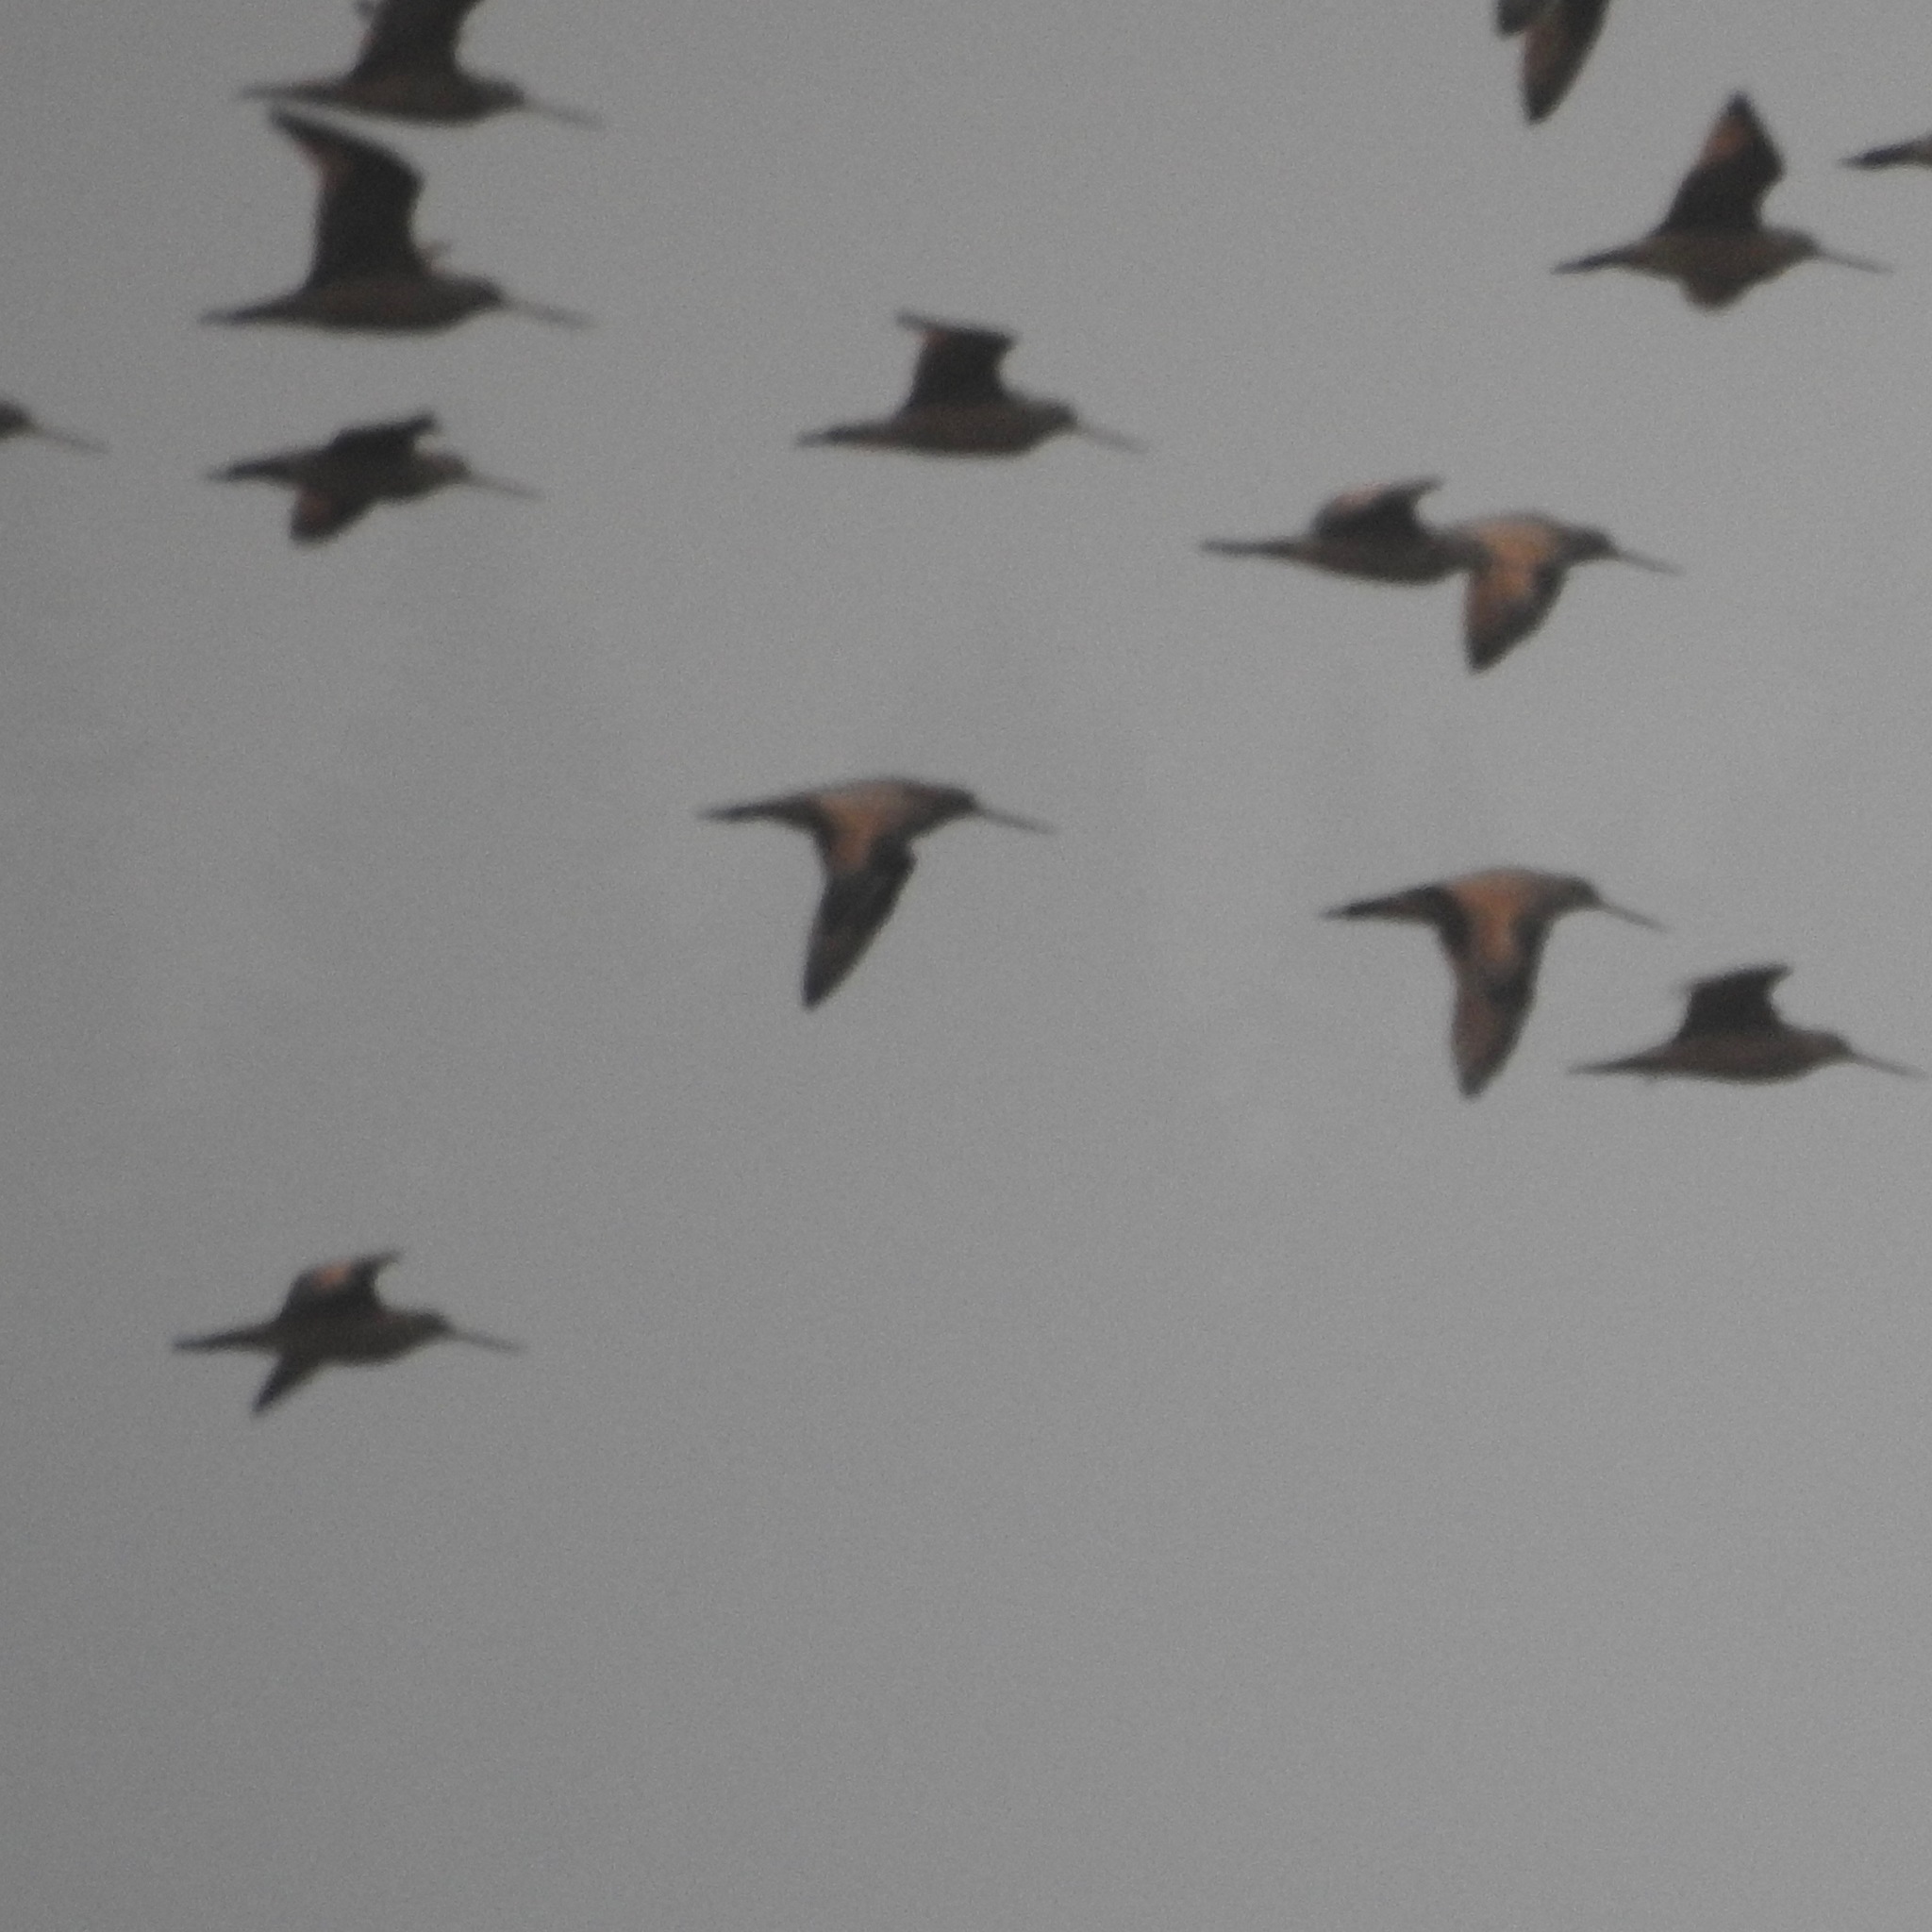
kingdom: Animalia
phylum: Chordata
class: Aves
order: Charadriiformes
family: Scolopacidae
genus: Limosa
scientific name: Limosa fedoa
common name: Marbled godwit
